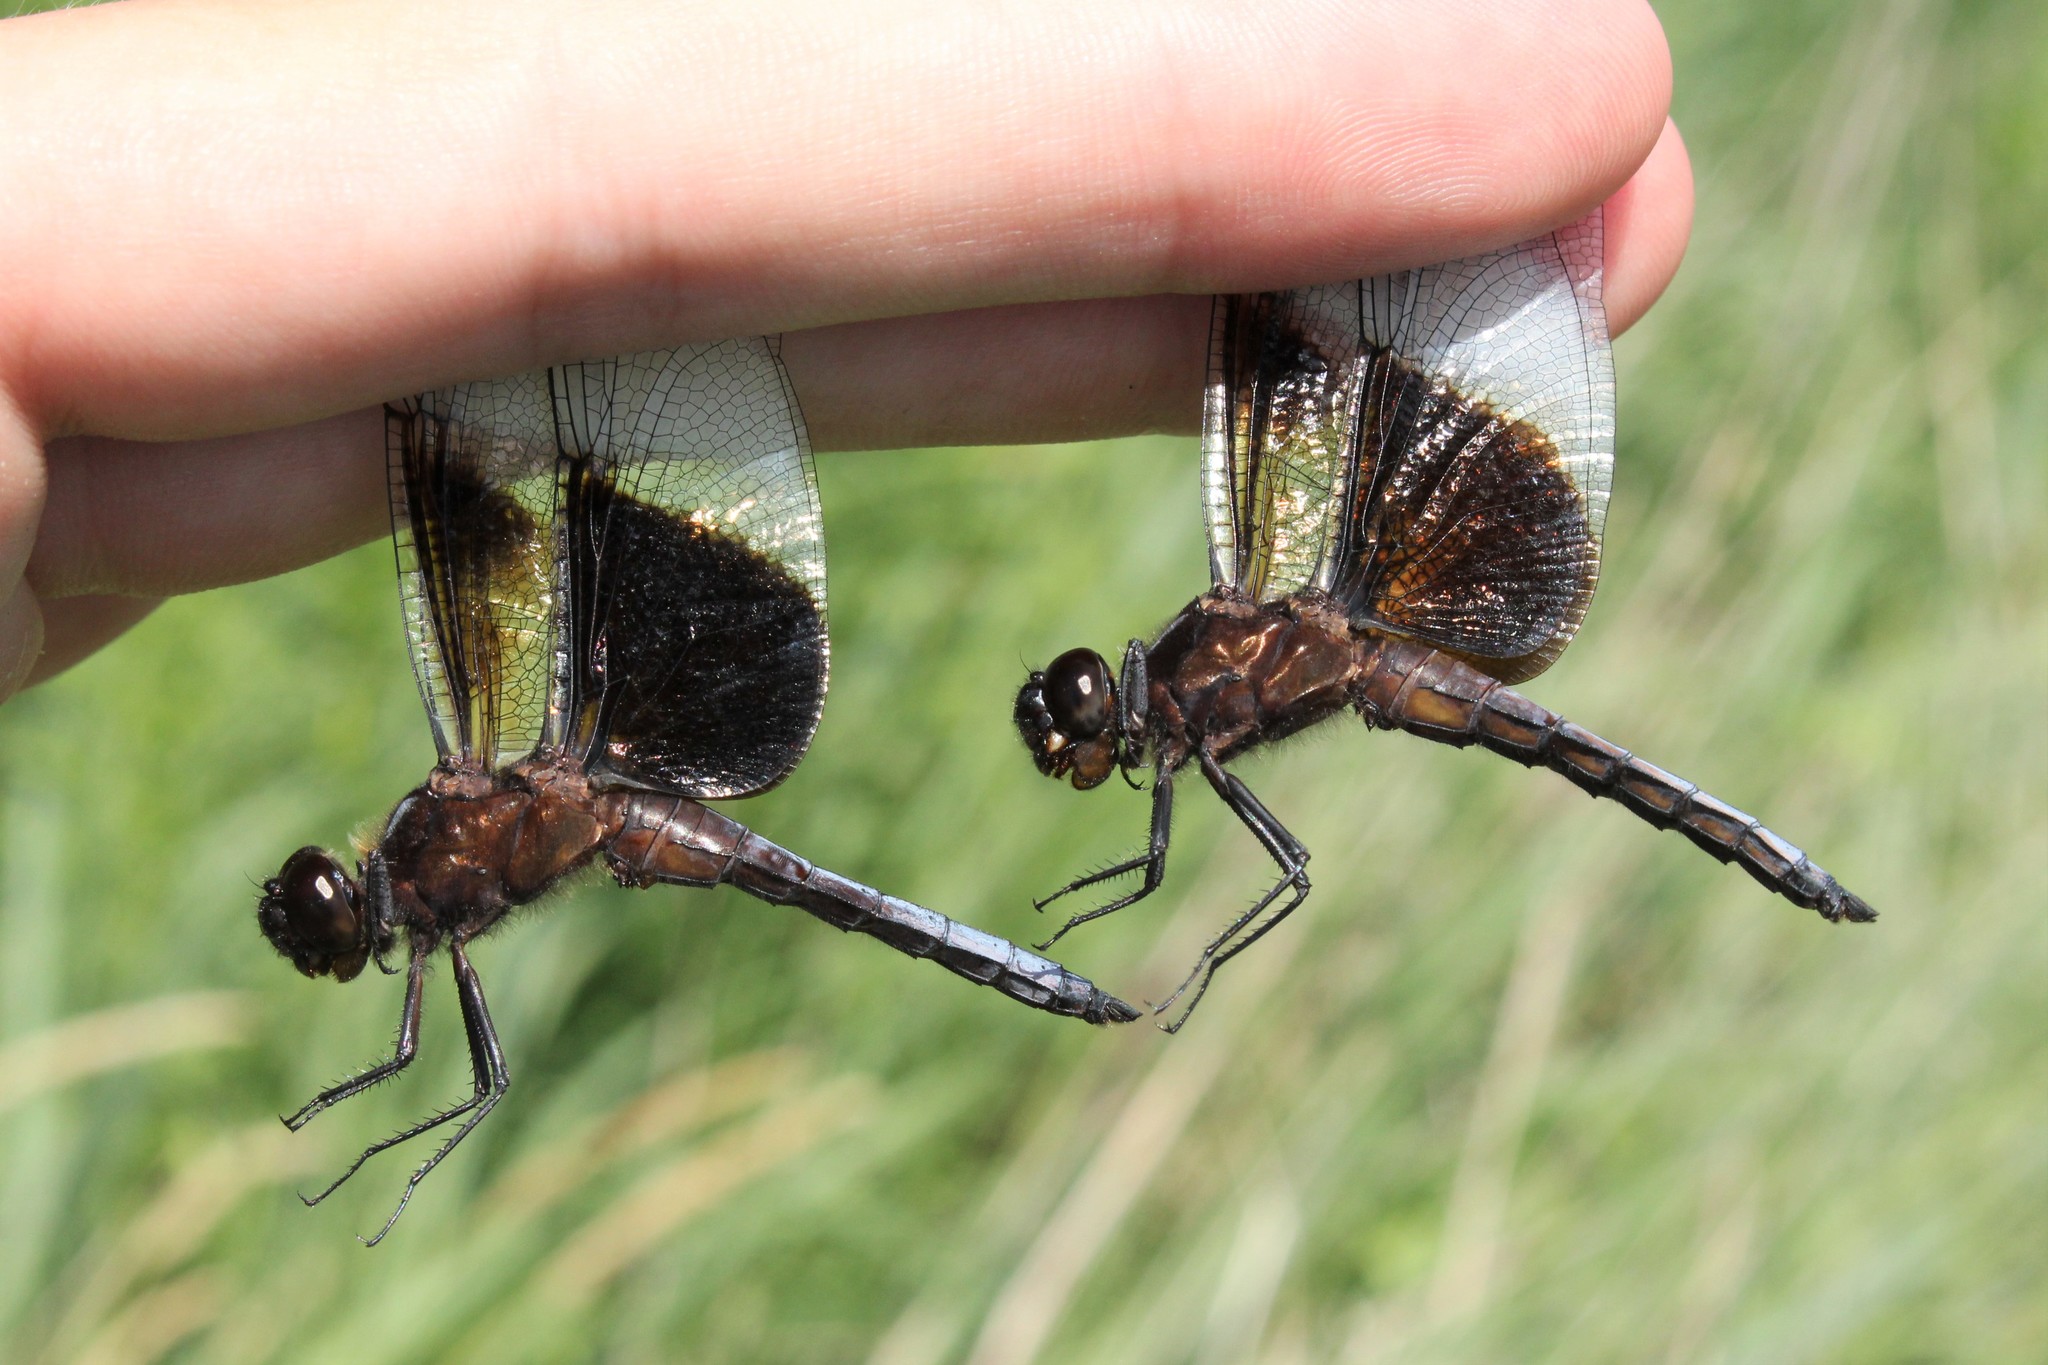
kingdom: Animalia
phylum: Arthropoda
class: Insecta
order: Odonata
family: Libellulidae
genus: Libellula
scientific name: Libellula luctuosa
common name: Widow skimmer
